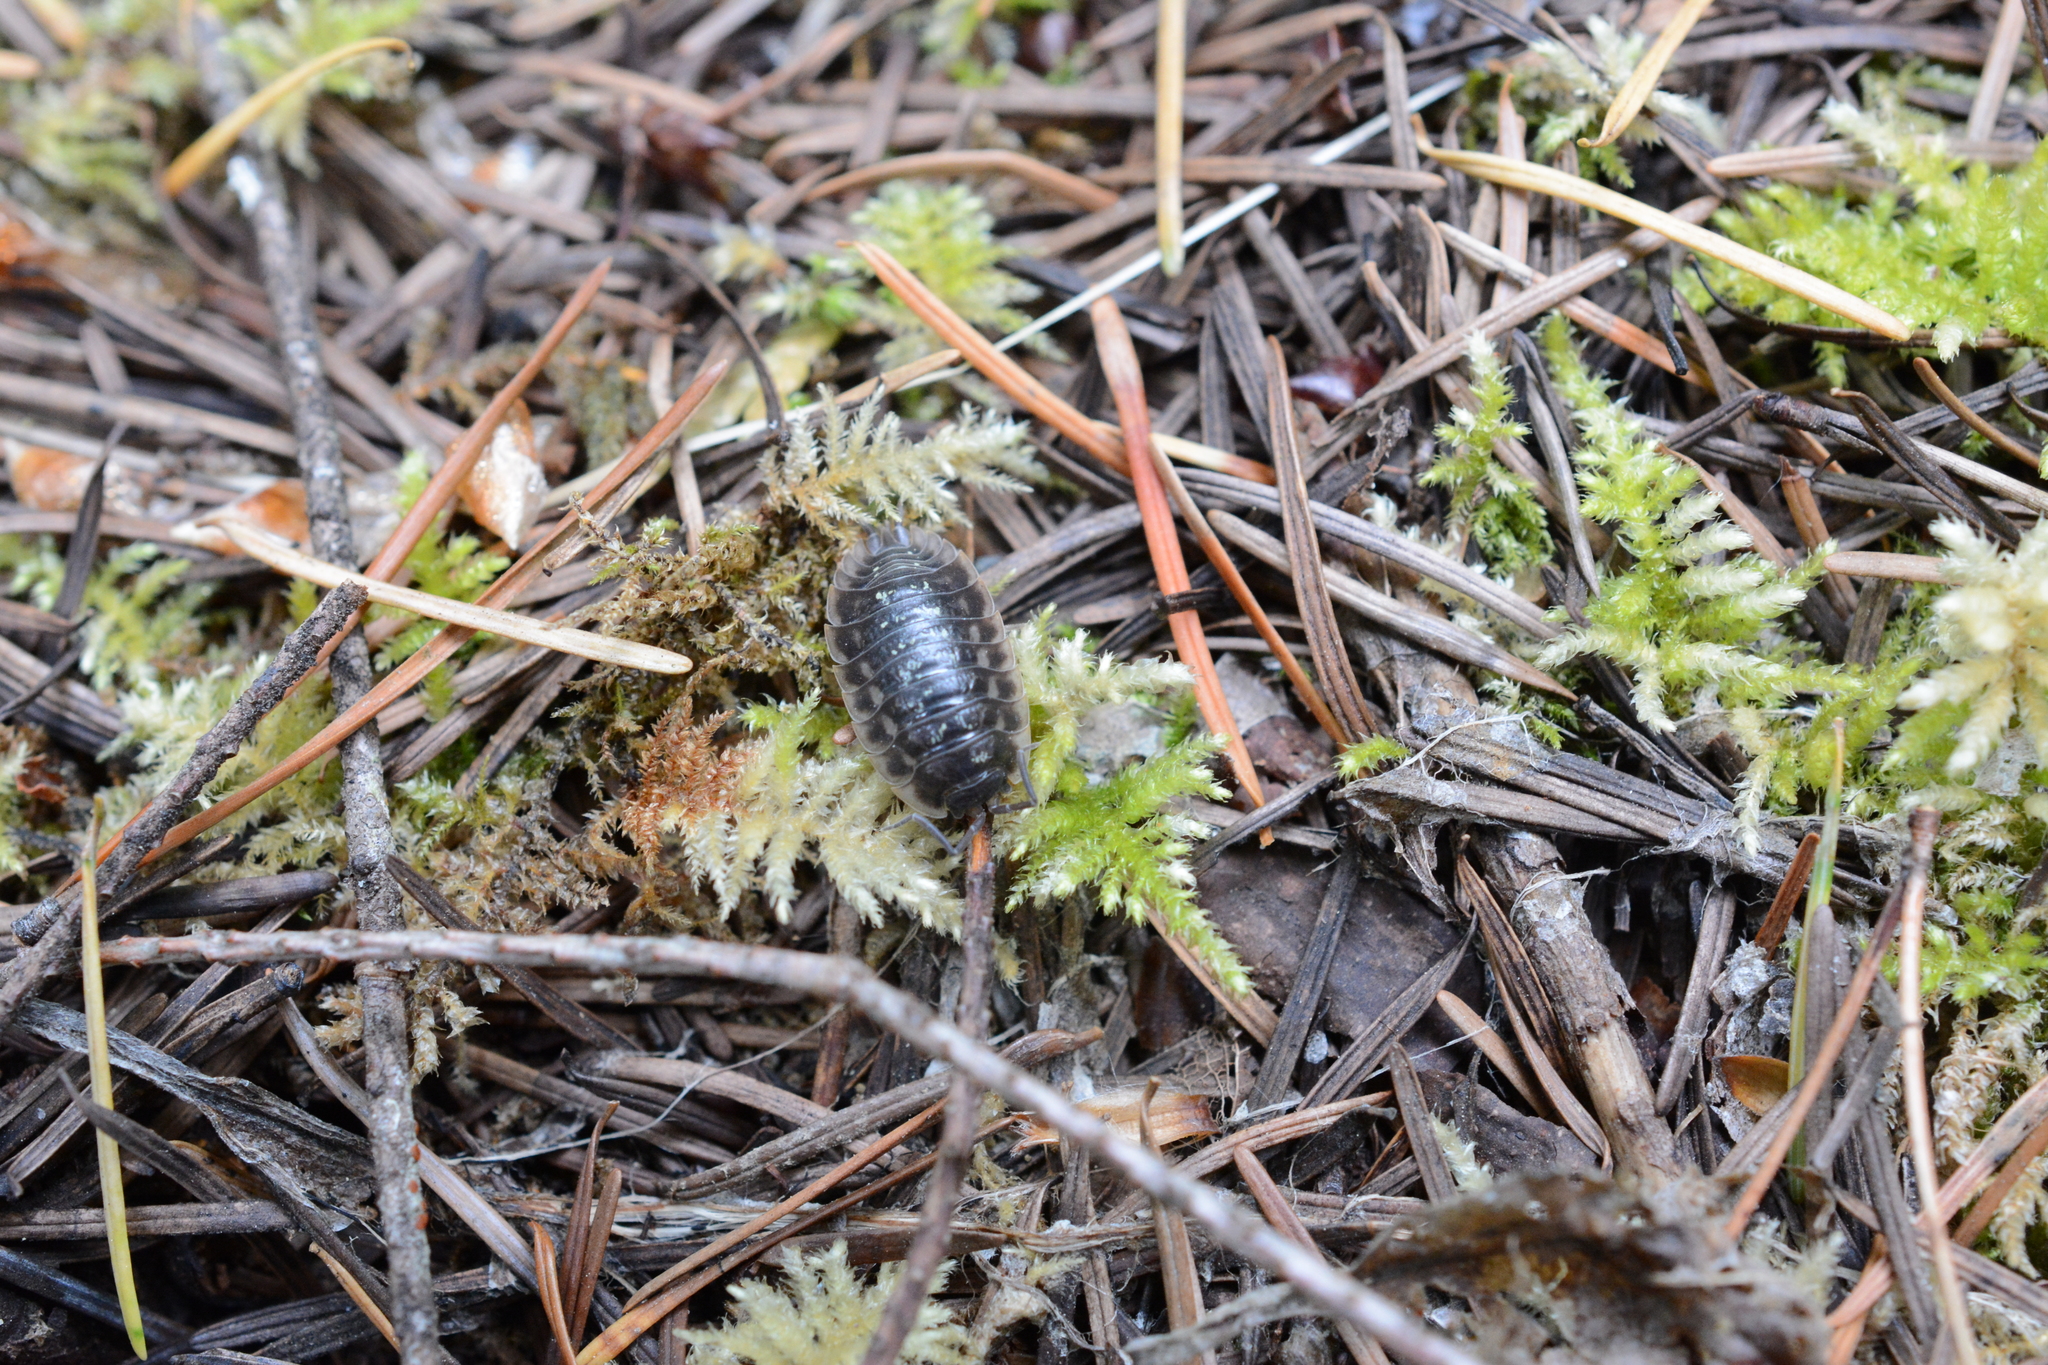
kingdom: Animalia
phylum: Arthropoda
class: Malacostraca
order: Isopoda
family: Oniscidae
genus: Oniscus
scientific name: Oniscus asellus
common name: Common shiny woodlouse
